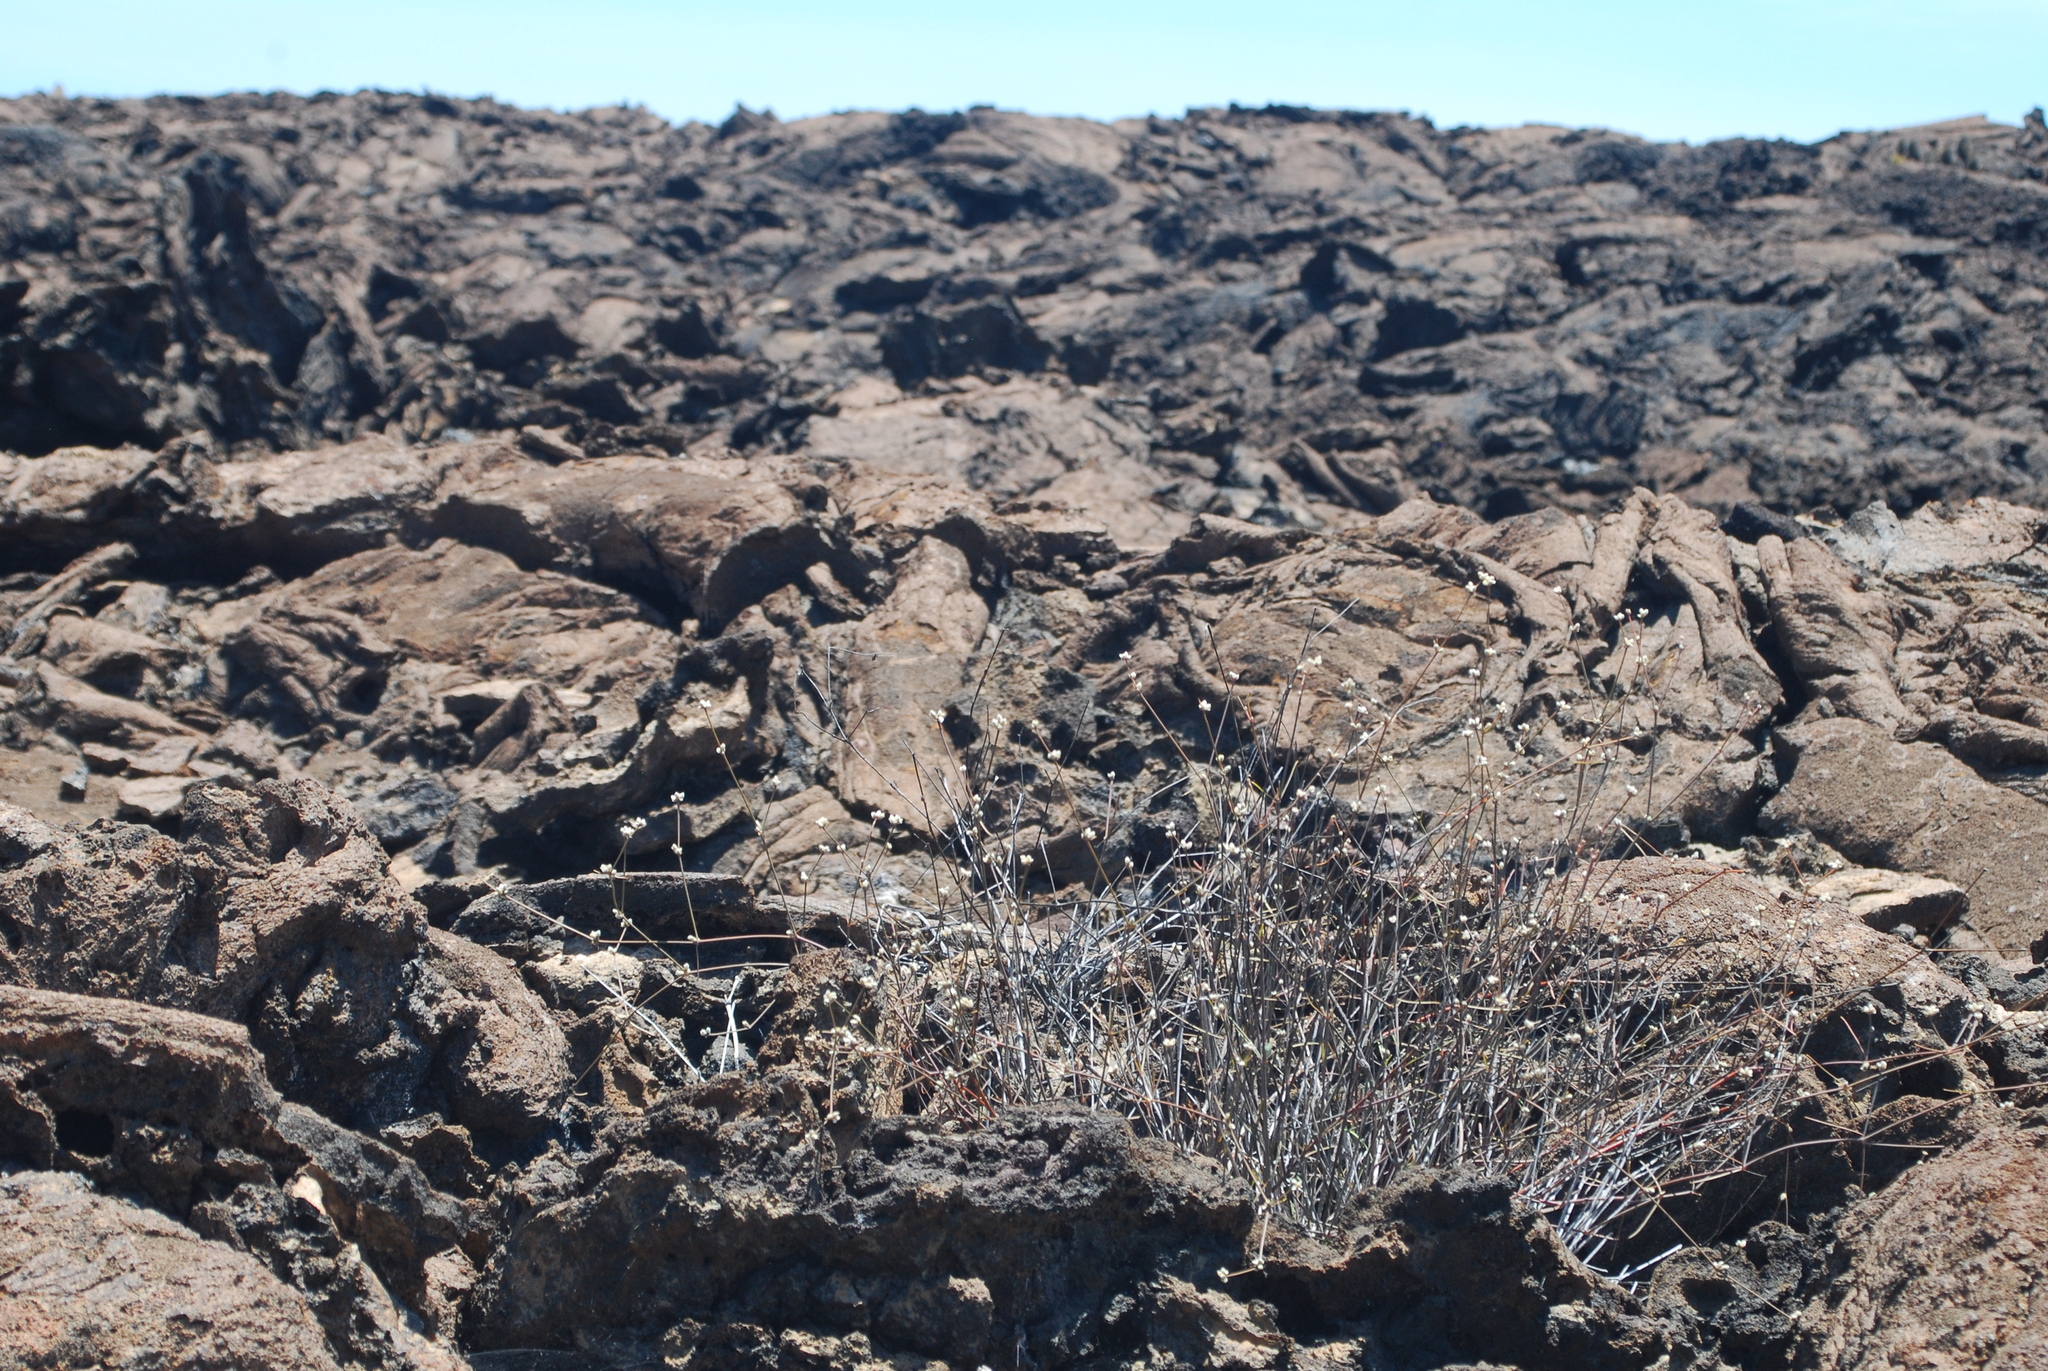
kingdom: Plantae
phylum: Tracheophyta
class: Magnoliopsida
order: Caryophyllales
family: Amaranthaceae
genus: Gomphrena
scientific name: Gomphrena radicata
